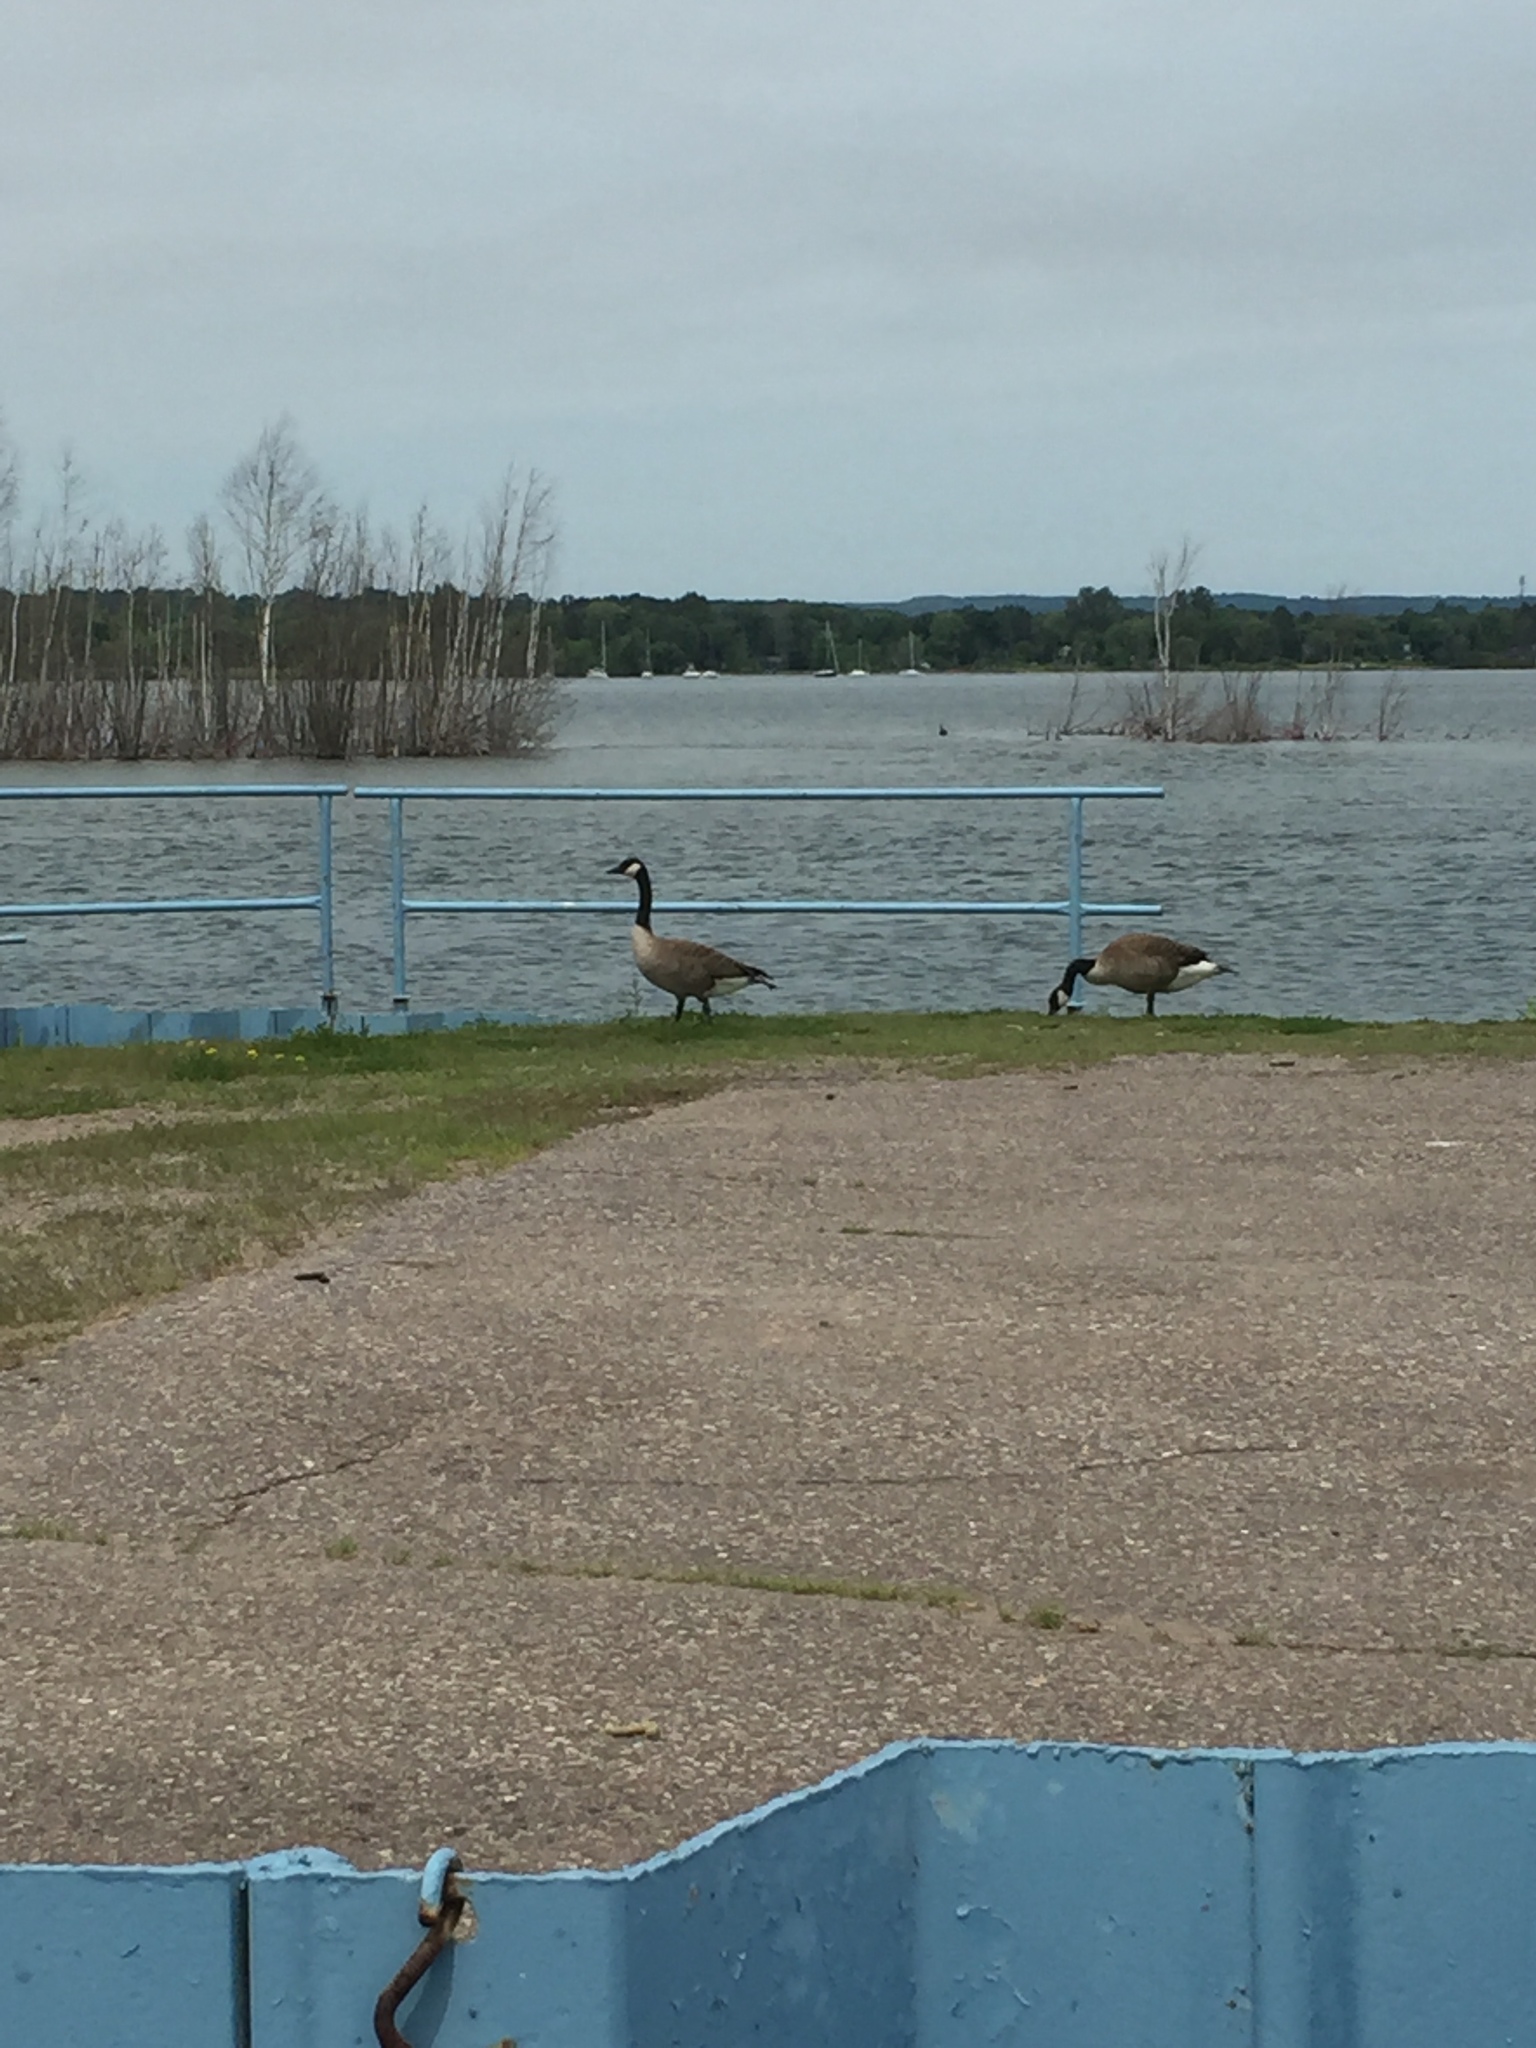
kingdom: Animalia
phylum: Chordata
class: Aves
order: Anseriformes
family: Anatidae
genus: Branta
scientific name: Branta canadensis
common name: Canada goose
